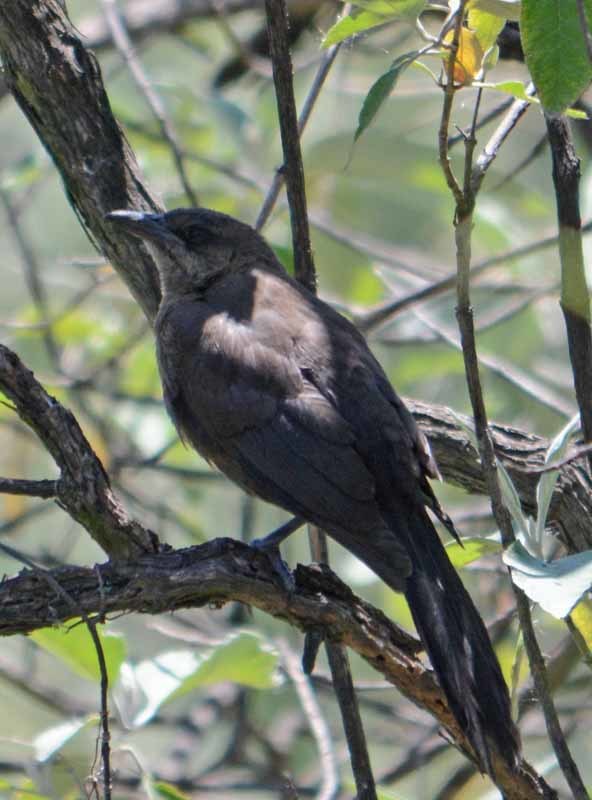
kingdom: Animalia
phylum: Chordata
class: Aves
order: Passeriformes
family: Icteridae
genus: Quiscalus
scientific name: Quiscalus mexicanus
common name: Great-tailed grackle
